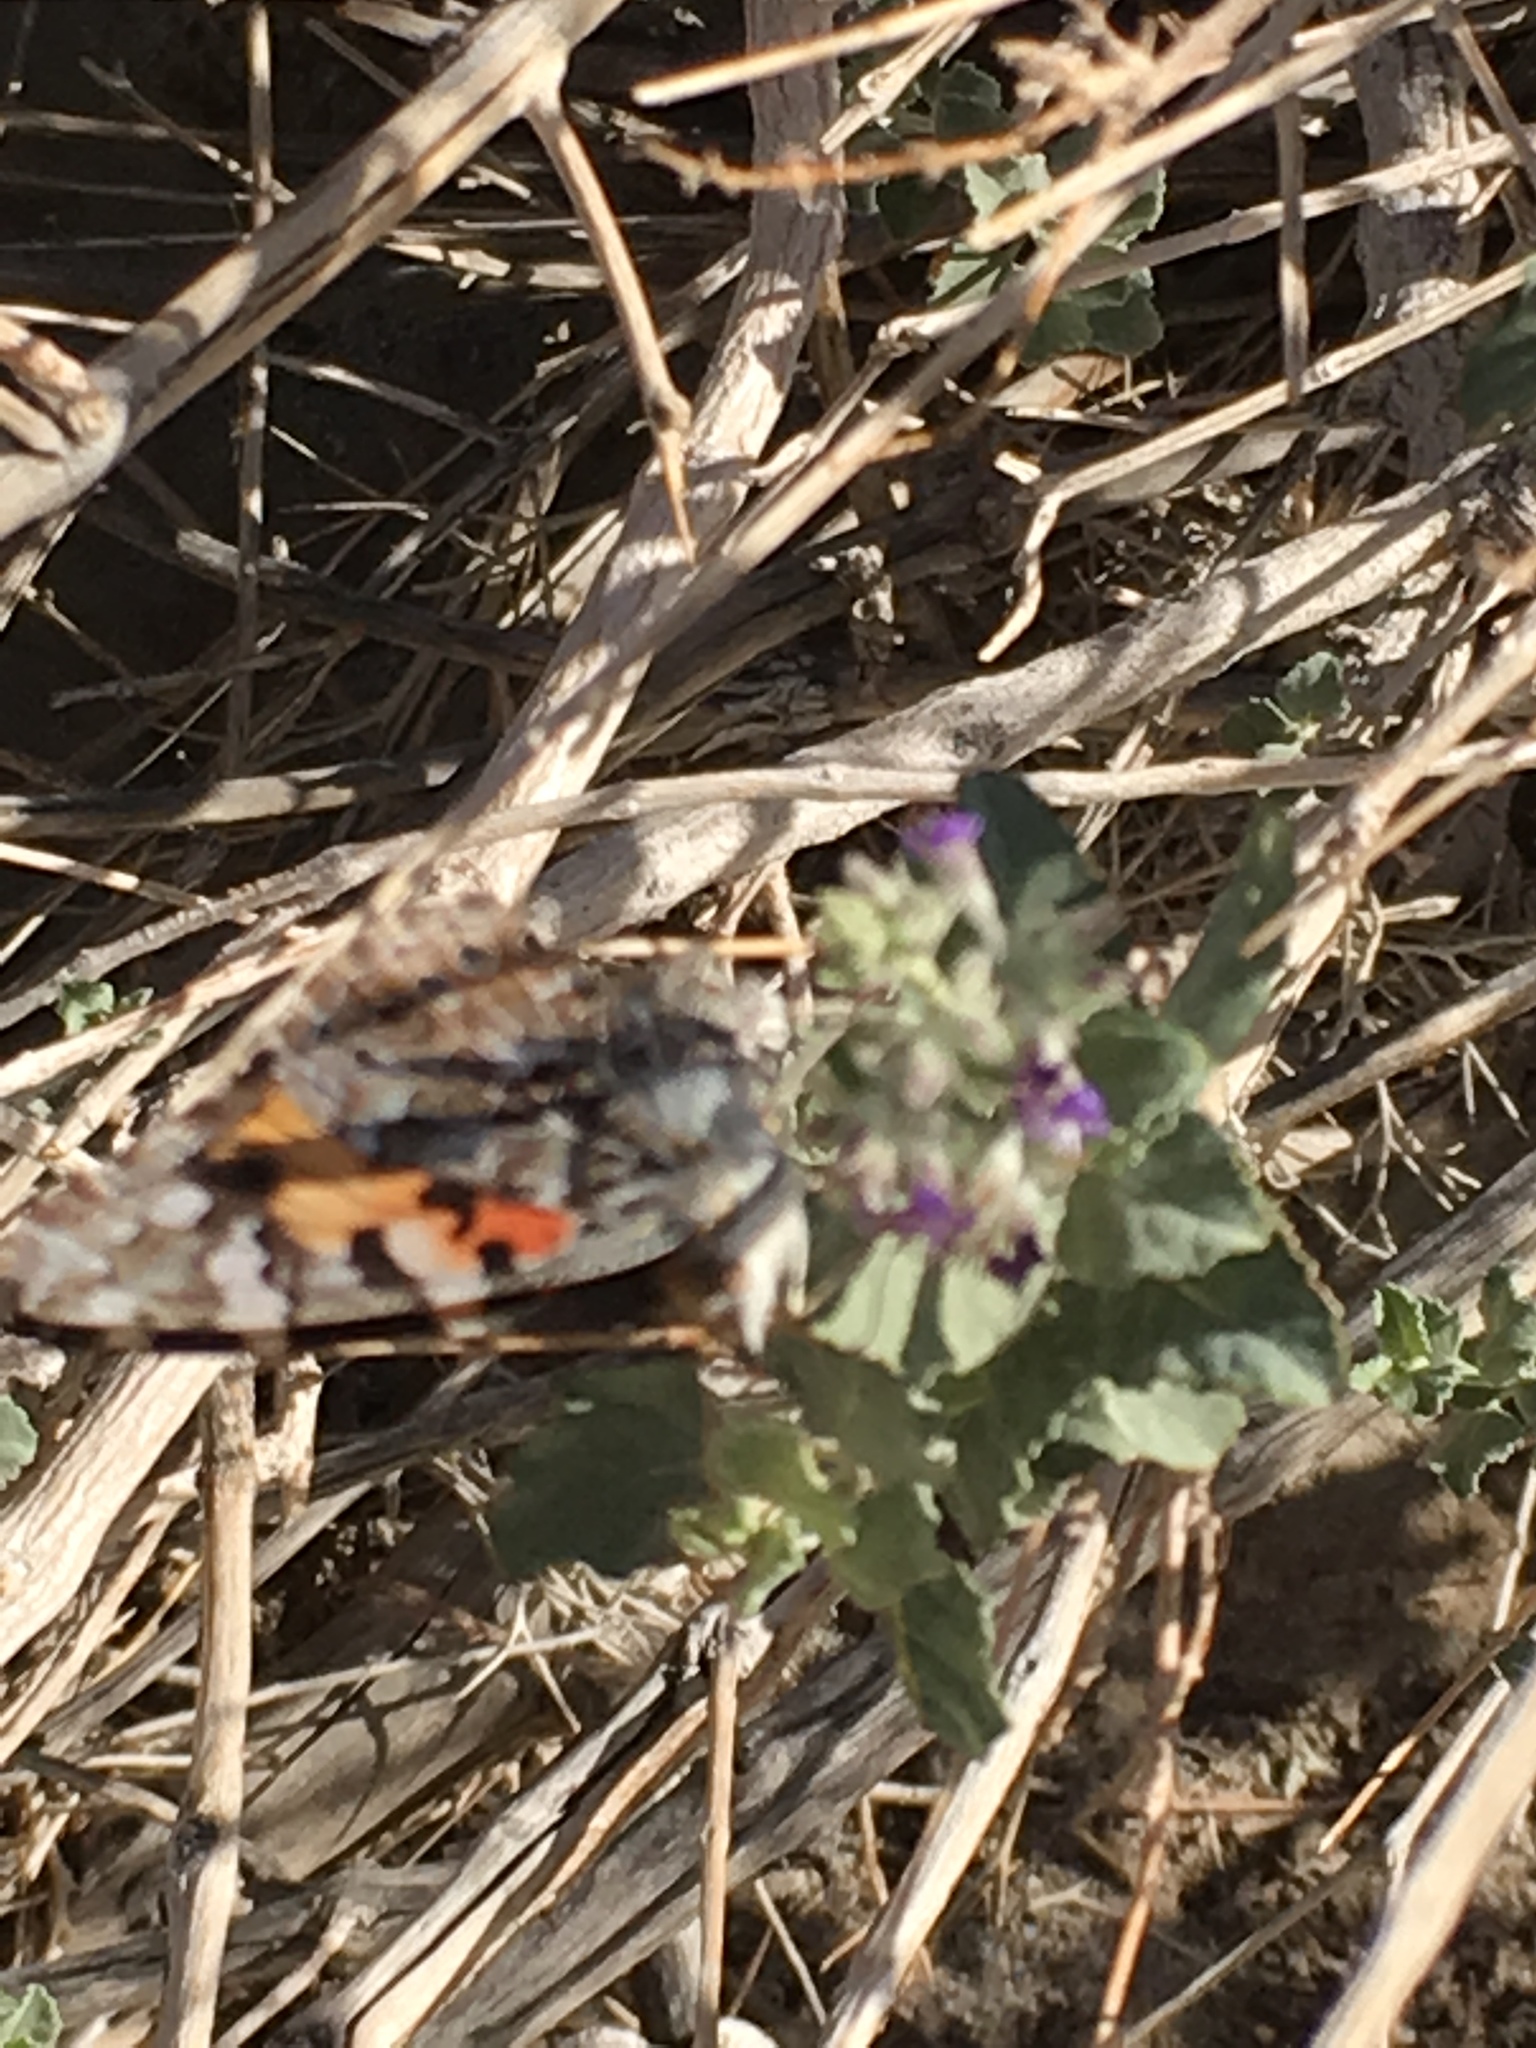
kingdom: Animalia
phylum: Arthropoda
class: Insecta
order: Lepidoptera
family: Nymphalidae
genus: Vanessa
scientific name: Vanessa cardui
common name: Painted lady
